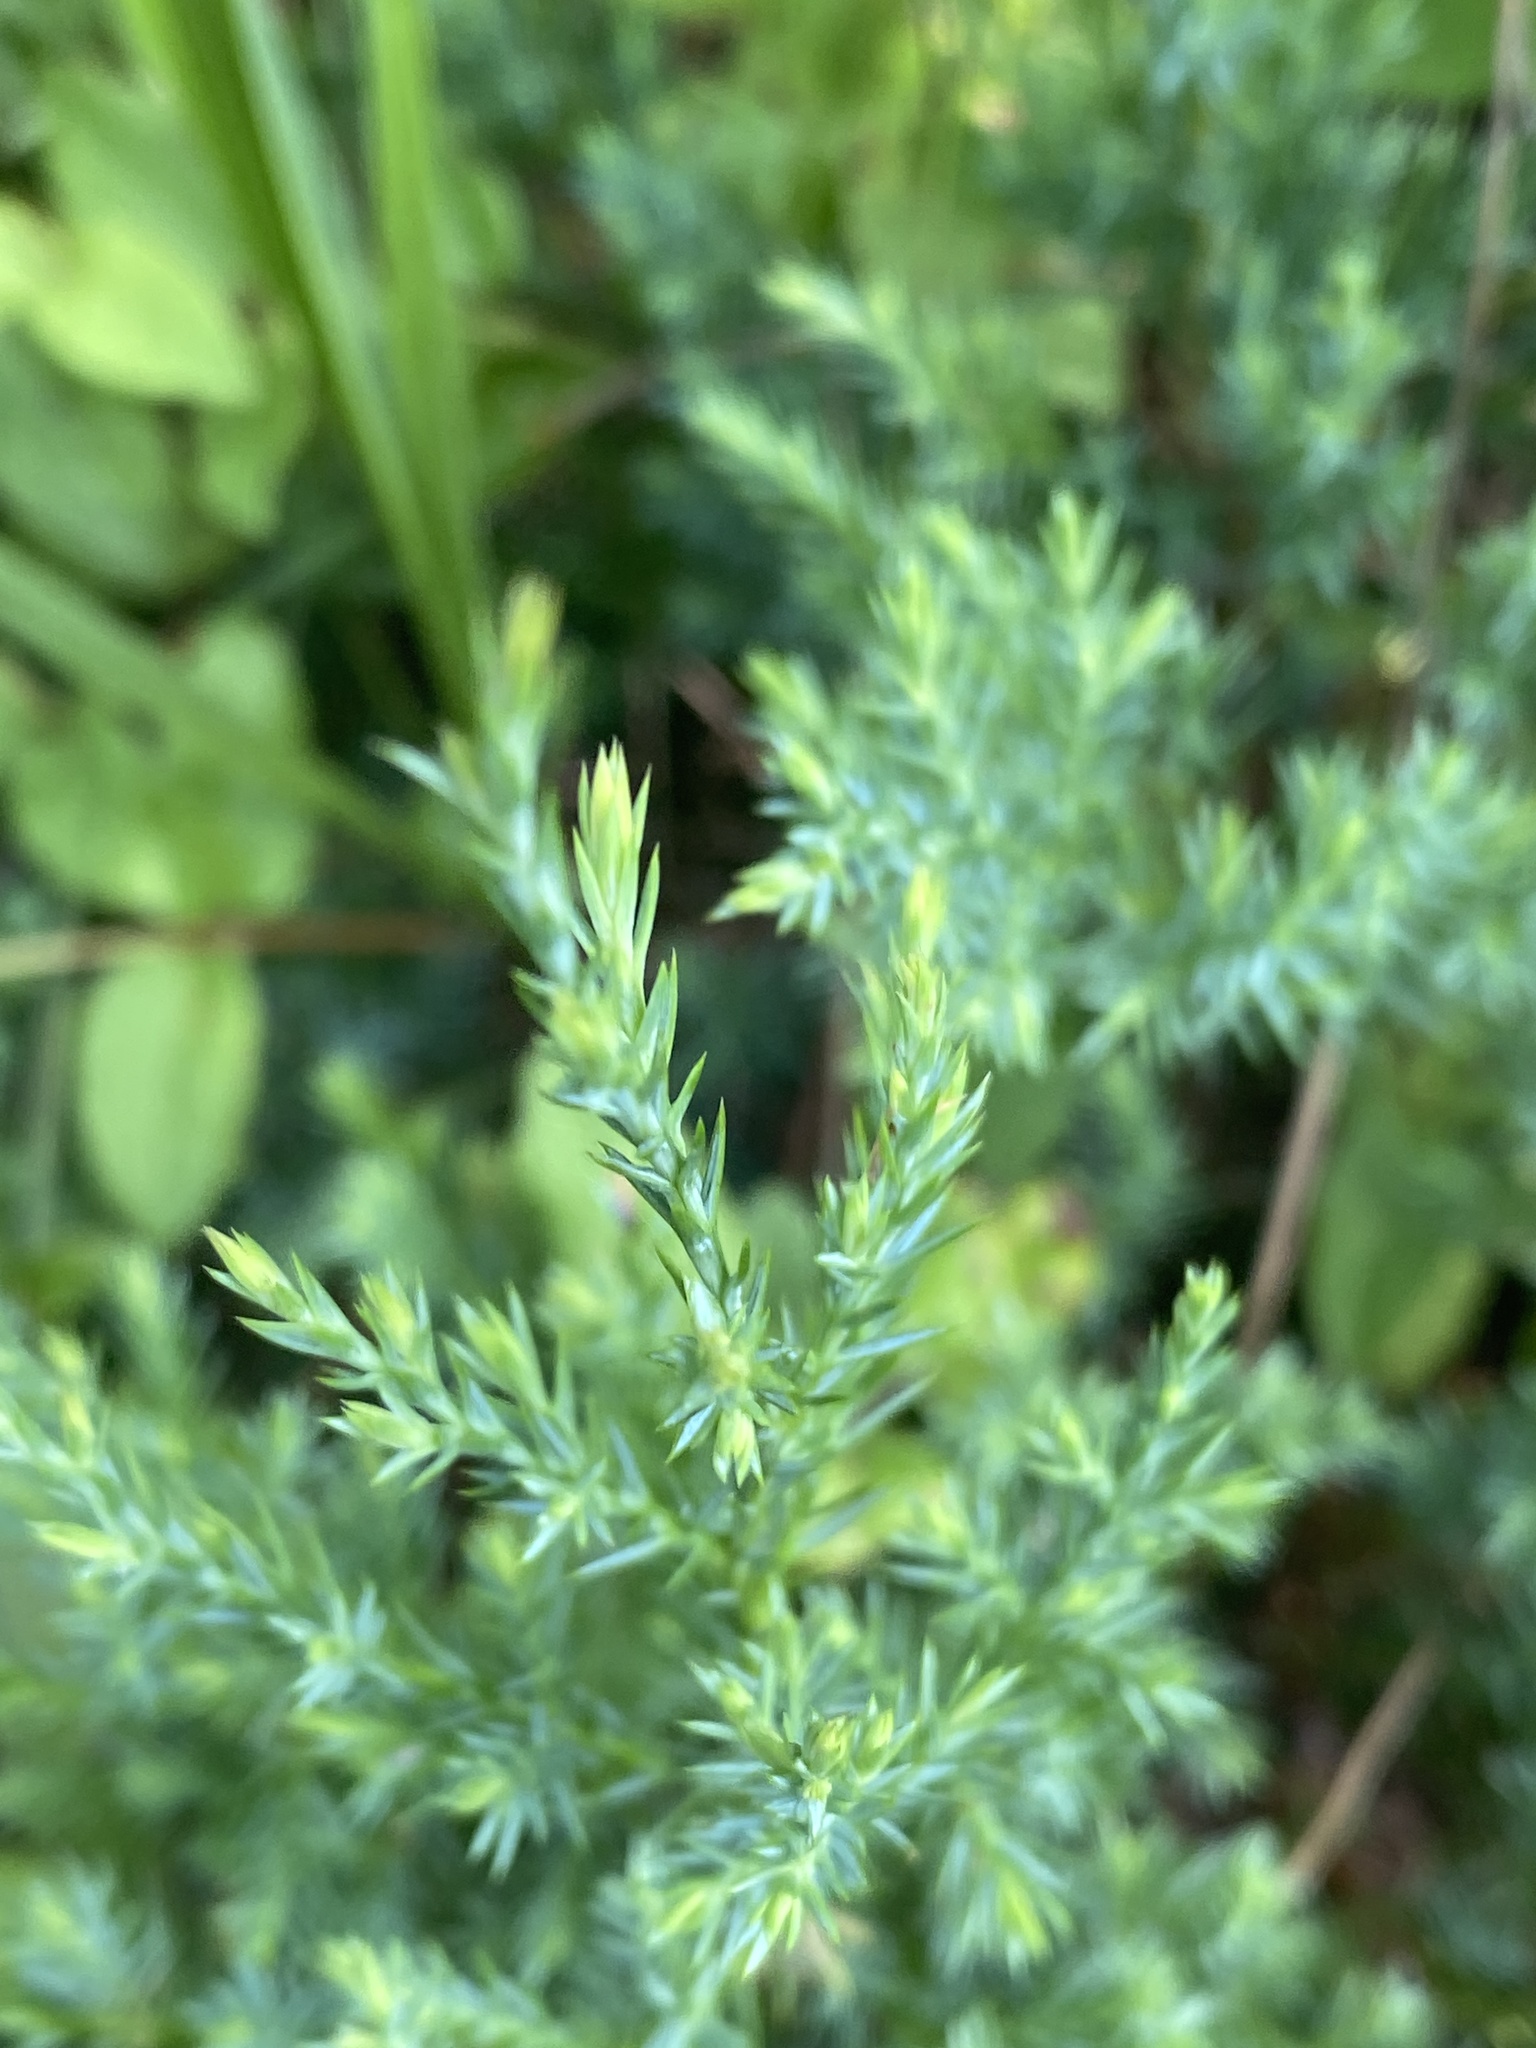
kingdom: Plantae
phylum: Tracheophyta
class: Pinopsida
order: Pinales
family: Cupressaceae
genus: Juniperus
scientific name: Juniperus virginiana
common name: Red juniper
